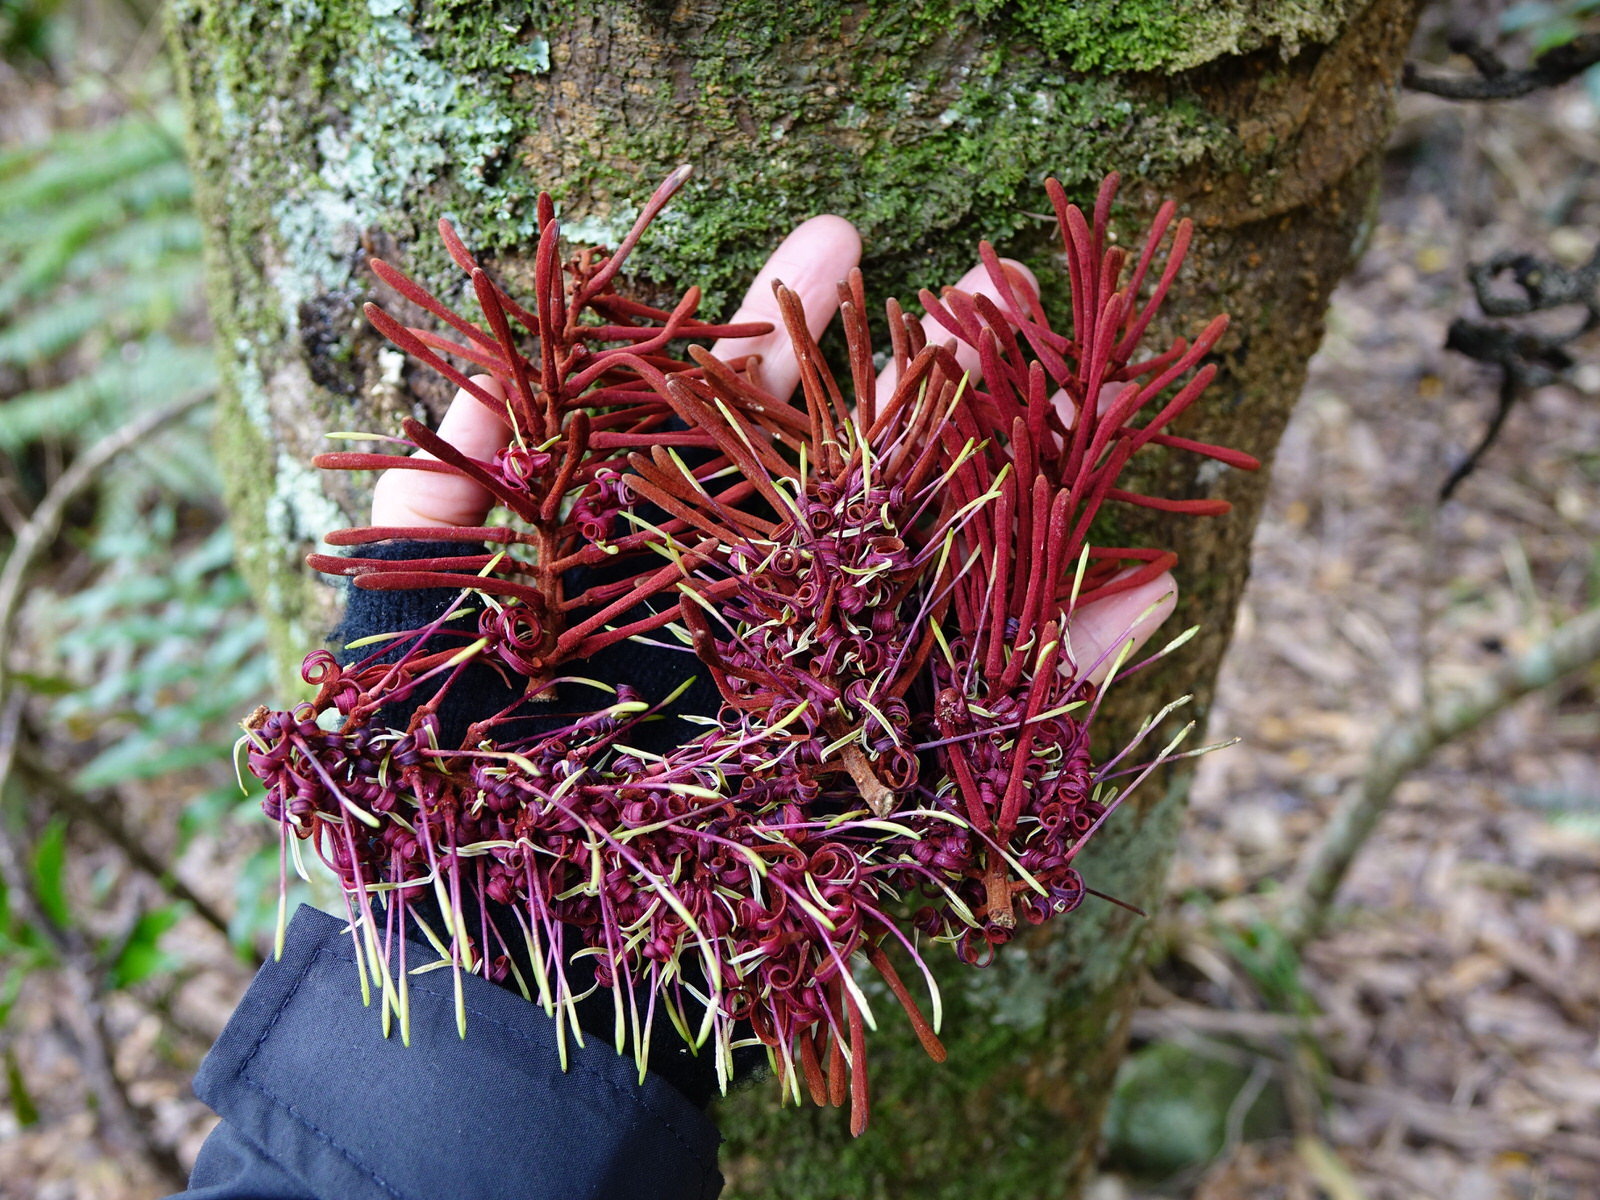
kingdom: Plantae
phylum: Tracheophyta
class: Magnoliopsida
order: Proteales
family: Proteaceae
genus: Knightia
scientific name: Knightia excelsa
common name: New zealand-honeysuckle
